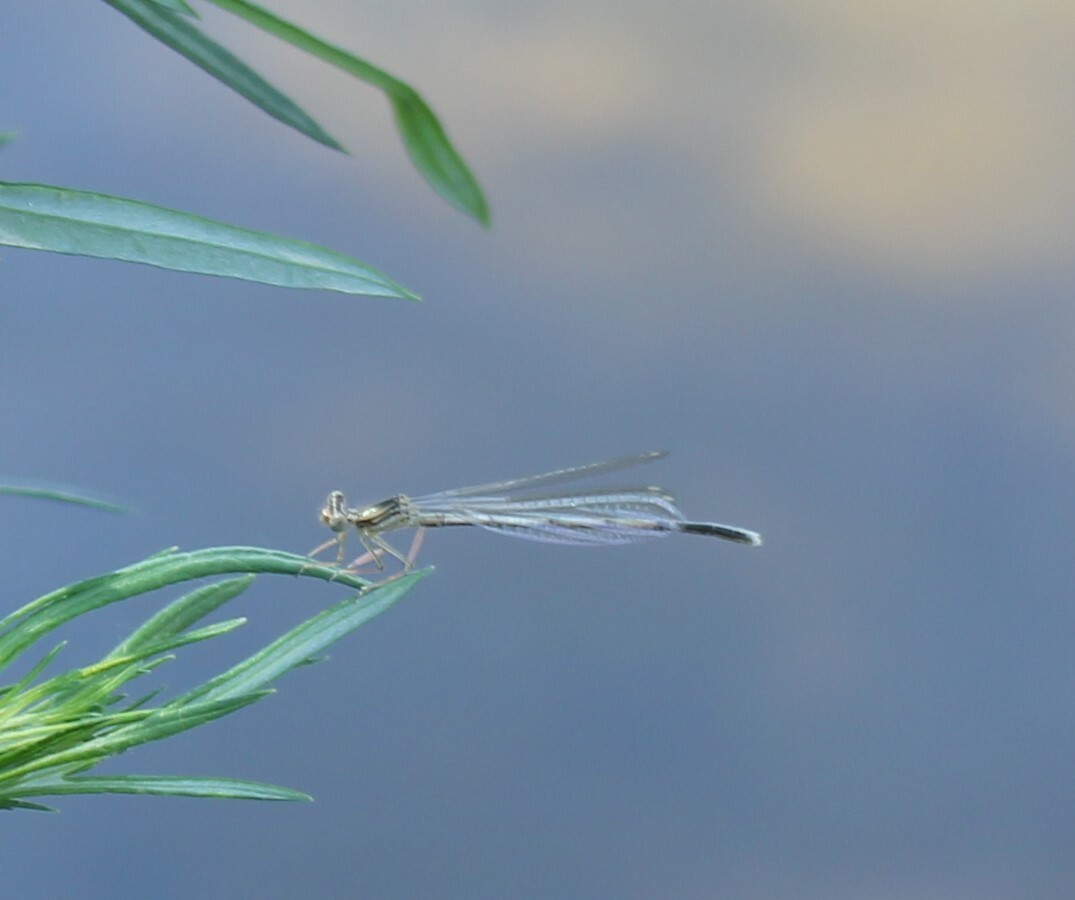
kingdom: Animalia
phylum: Arthropoda
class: Insecta
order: Odonata
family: Platycnemididae
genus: Platycnemis
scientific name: Platycnemis pennipes
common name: White-legged damselfly
